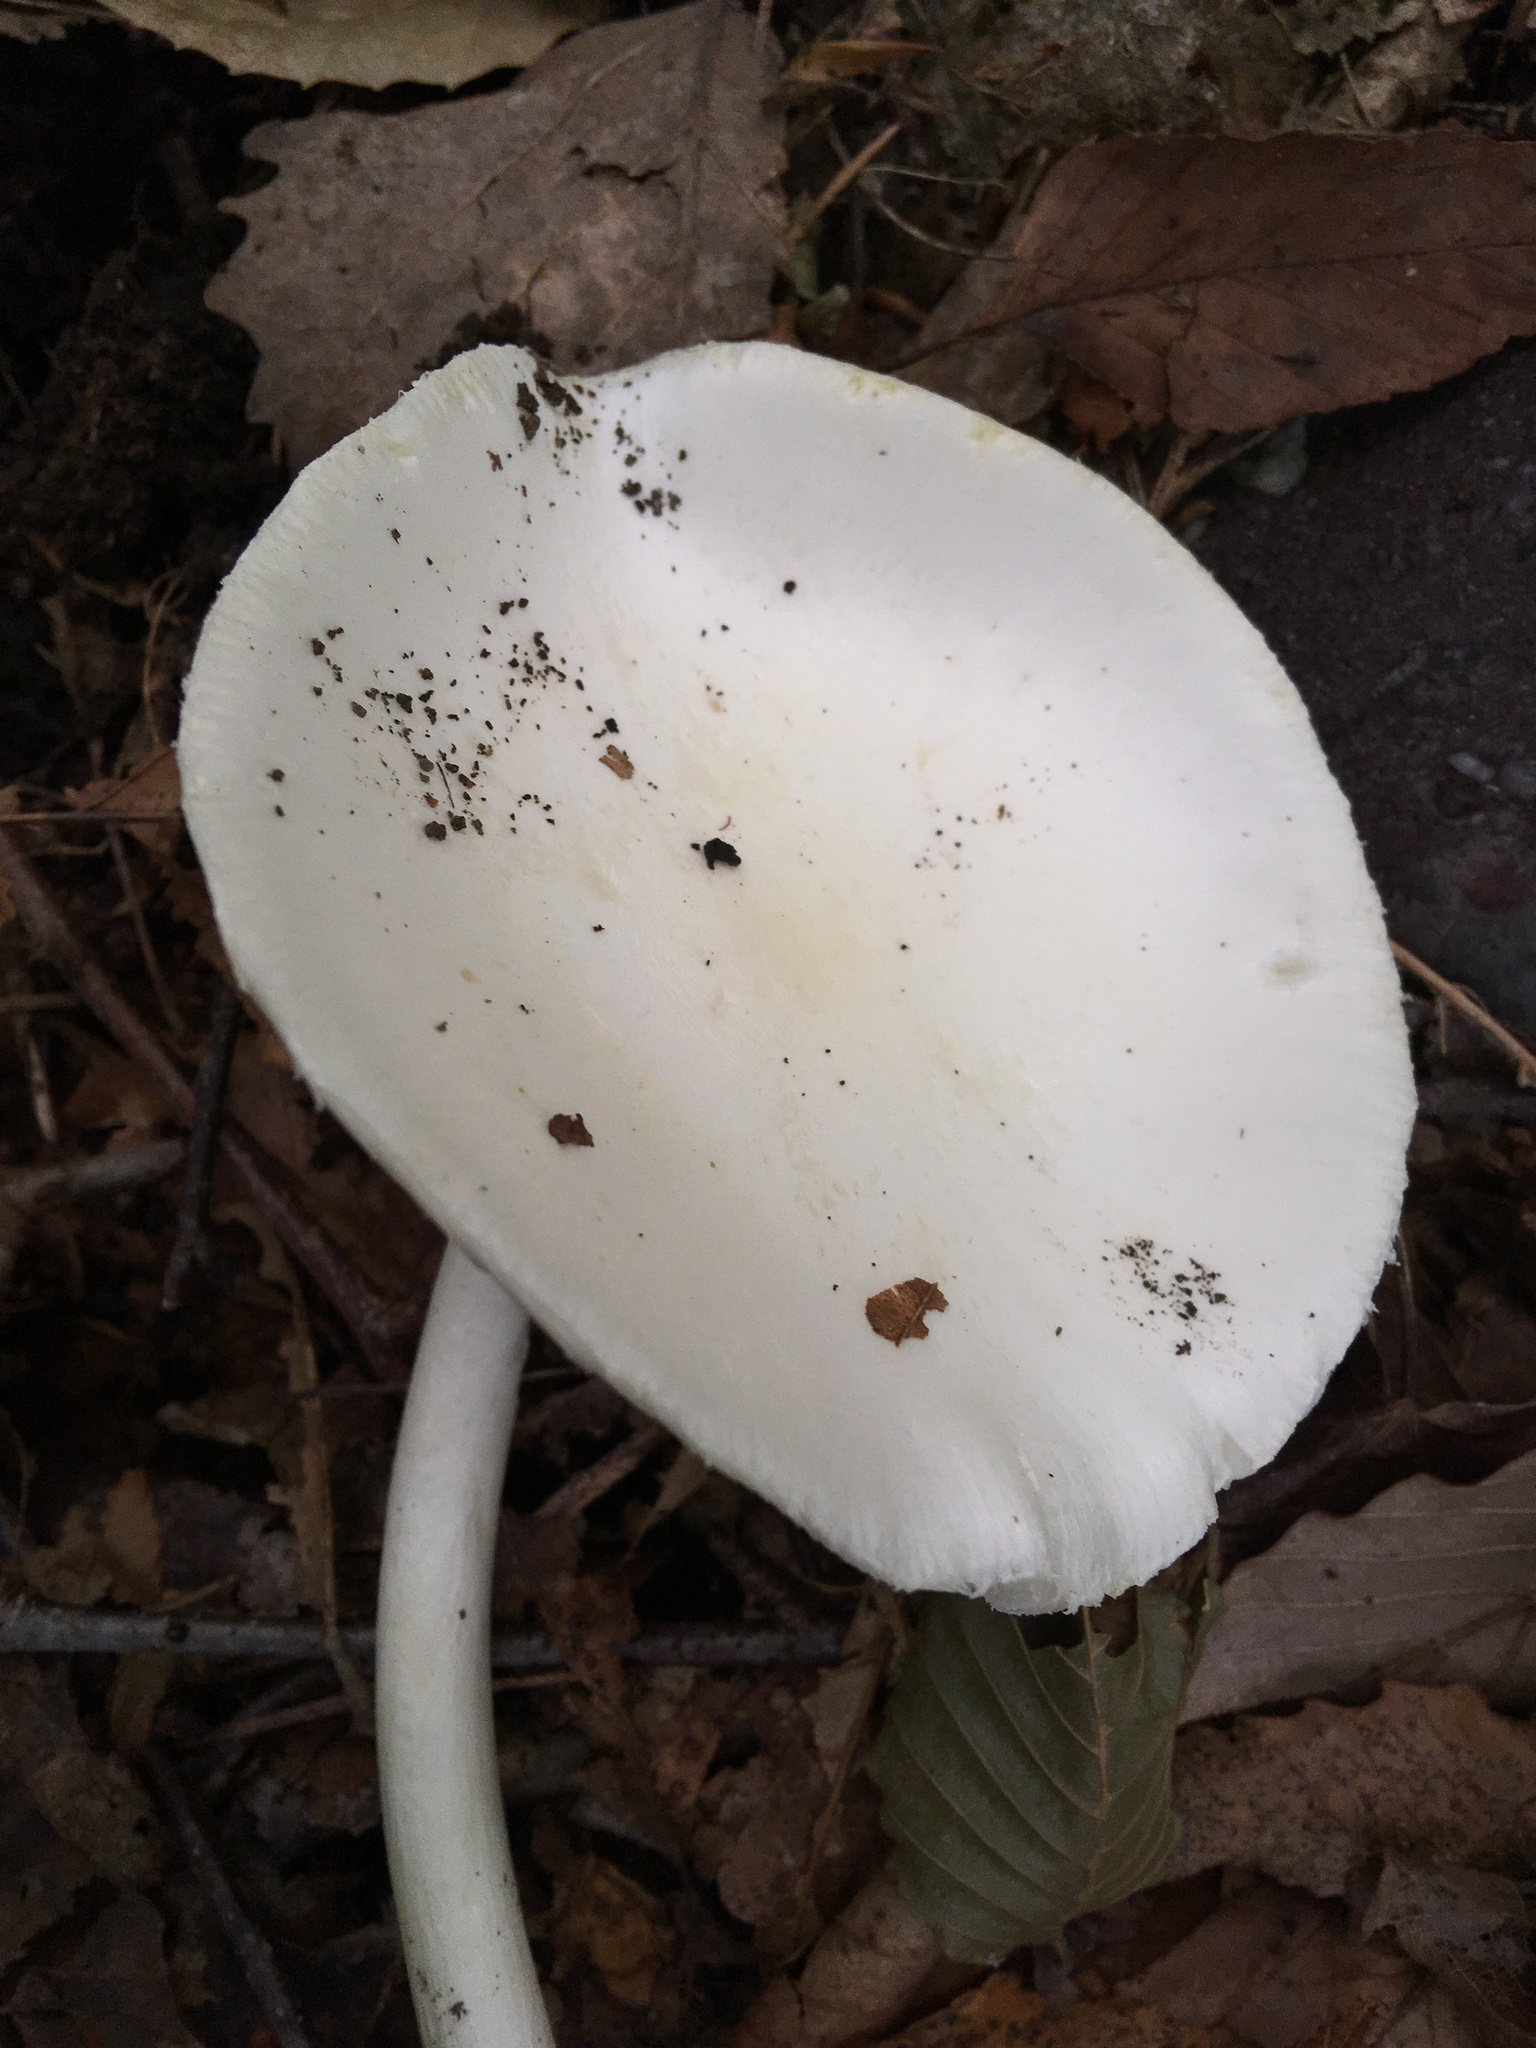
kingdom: Fungi
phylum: Basidiomycota
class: Agaricomycetes
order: Agaricales
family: Amanitaceae
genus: Amanita
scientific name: Amanita bisporigera
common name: Eastern north american destroying angel
